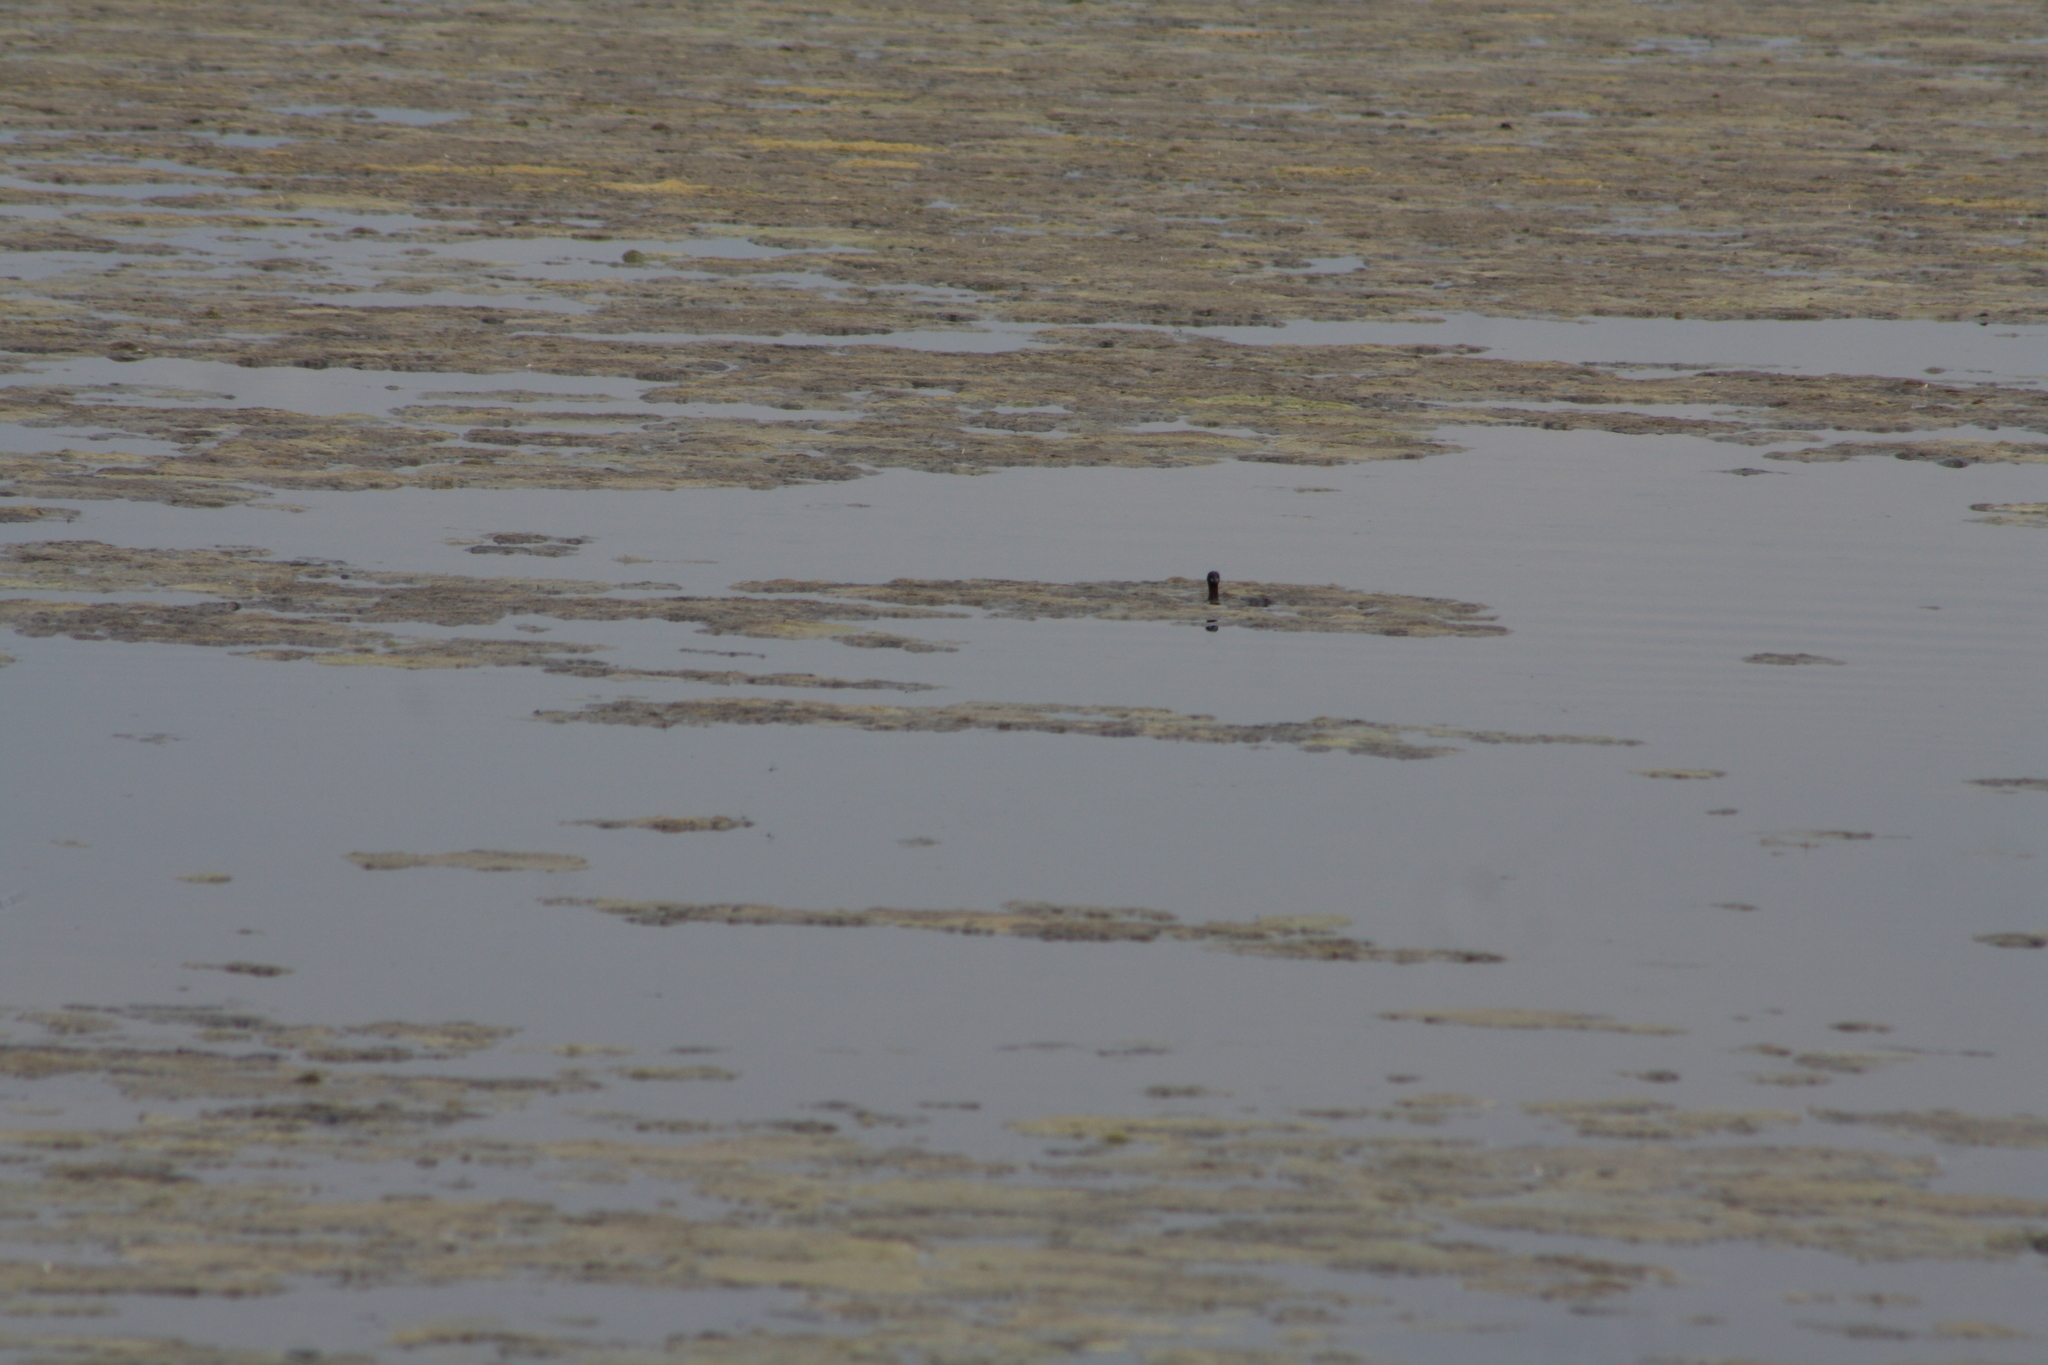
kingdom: Animalia
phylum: Chordata
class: Aves
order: Podicipediformes
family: Podicipedidae
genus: Tachybaptus
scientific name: Tachybaptus ruficollis
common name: Little grebe
